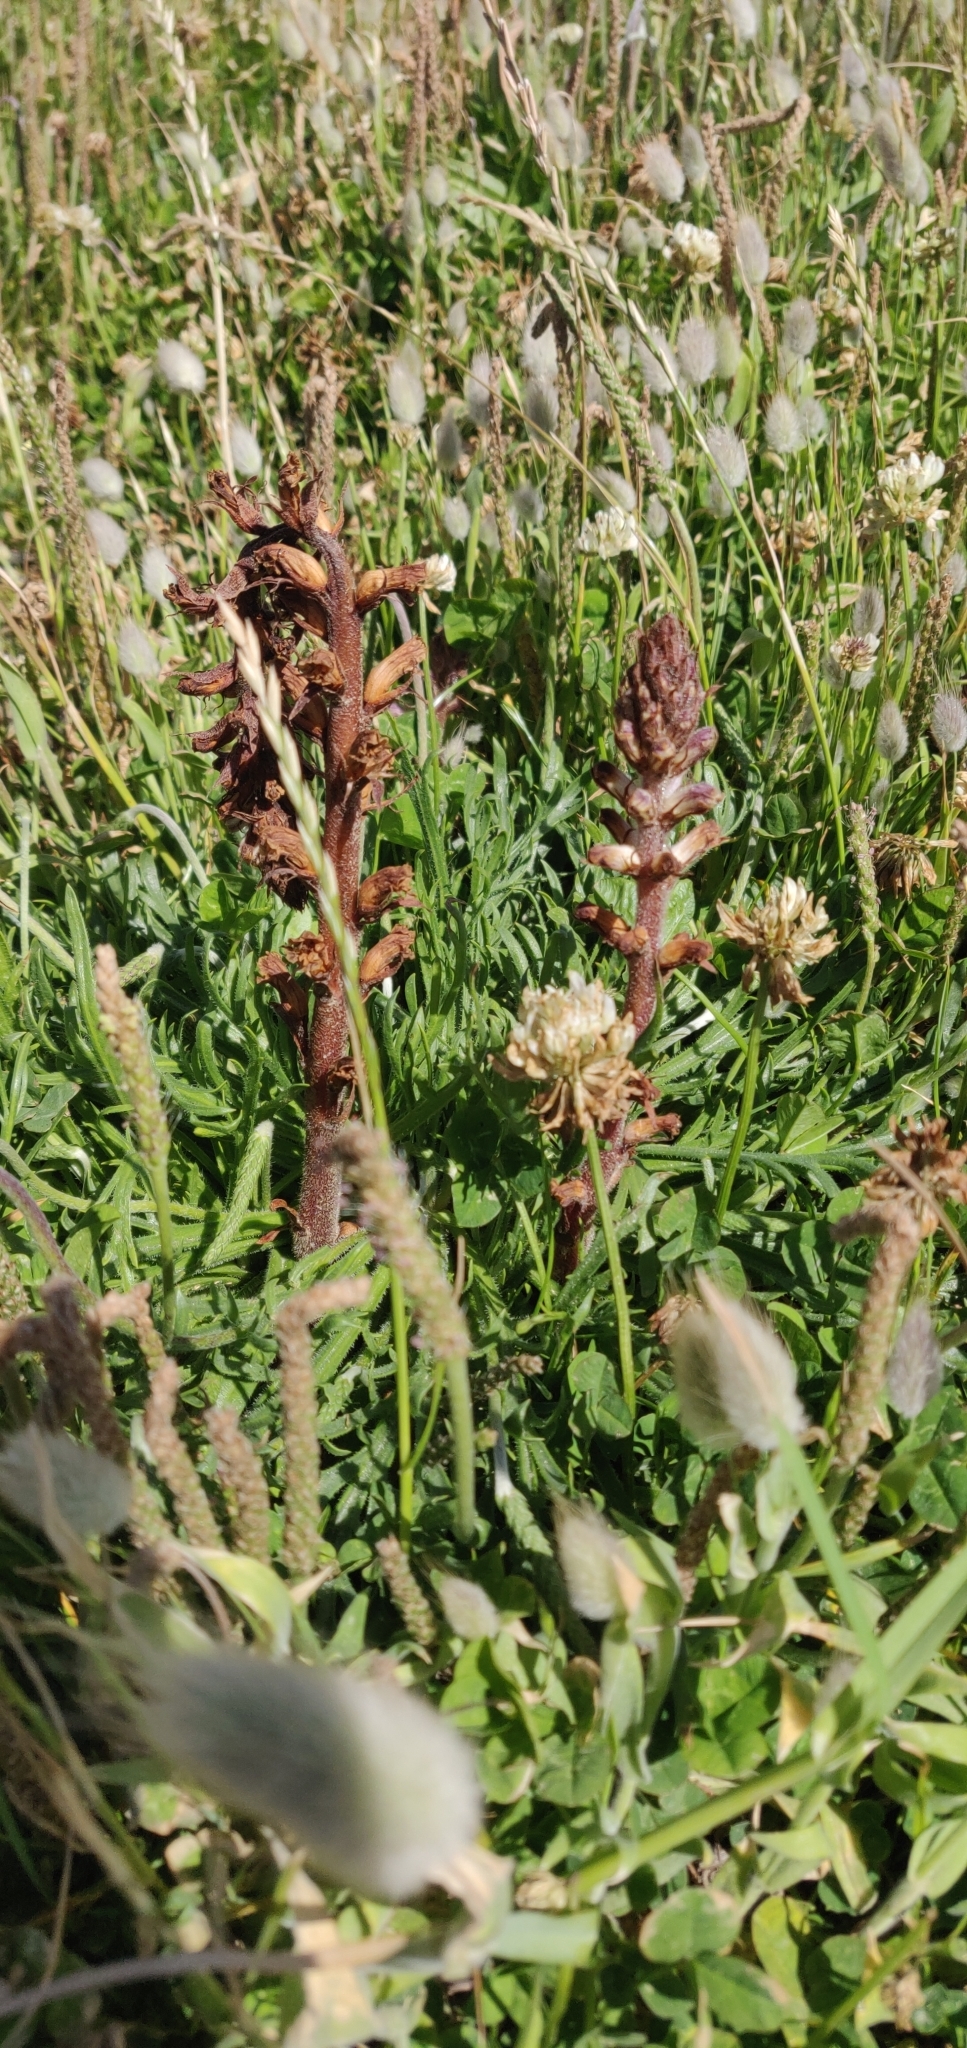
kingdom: Plantae
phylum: Tracheophyta
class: Magnoliopsida
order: Lamiales
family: Orobanchaceae
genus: Orobanche
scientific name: Orobanche minor
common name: Common broomrape
